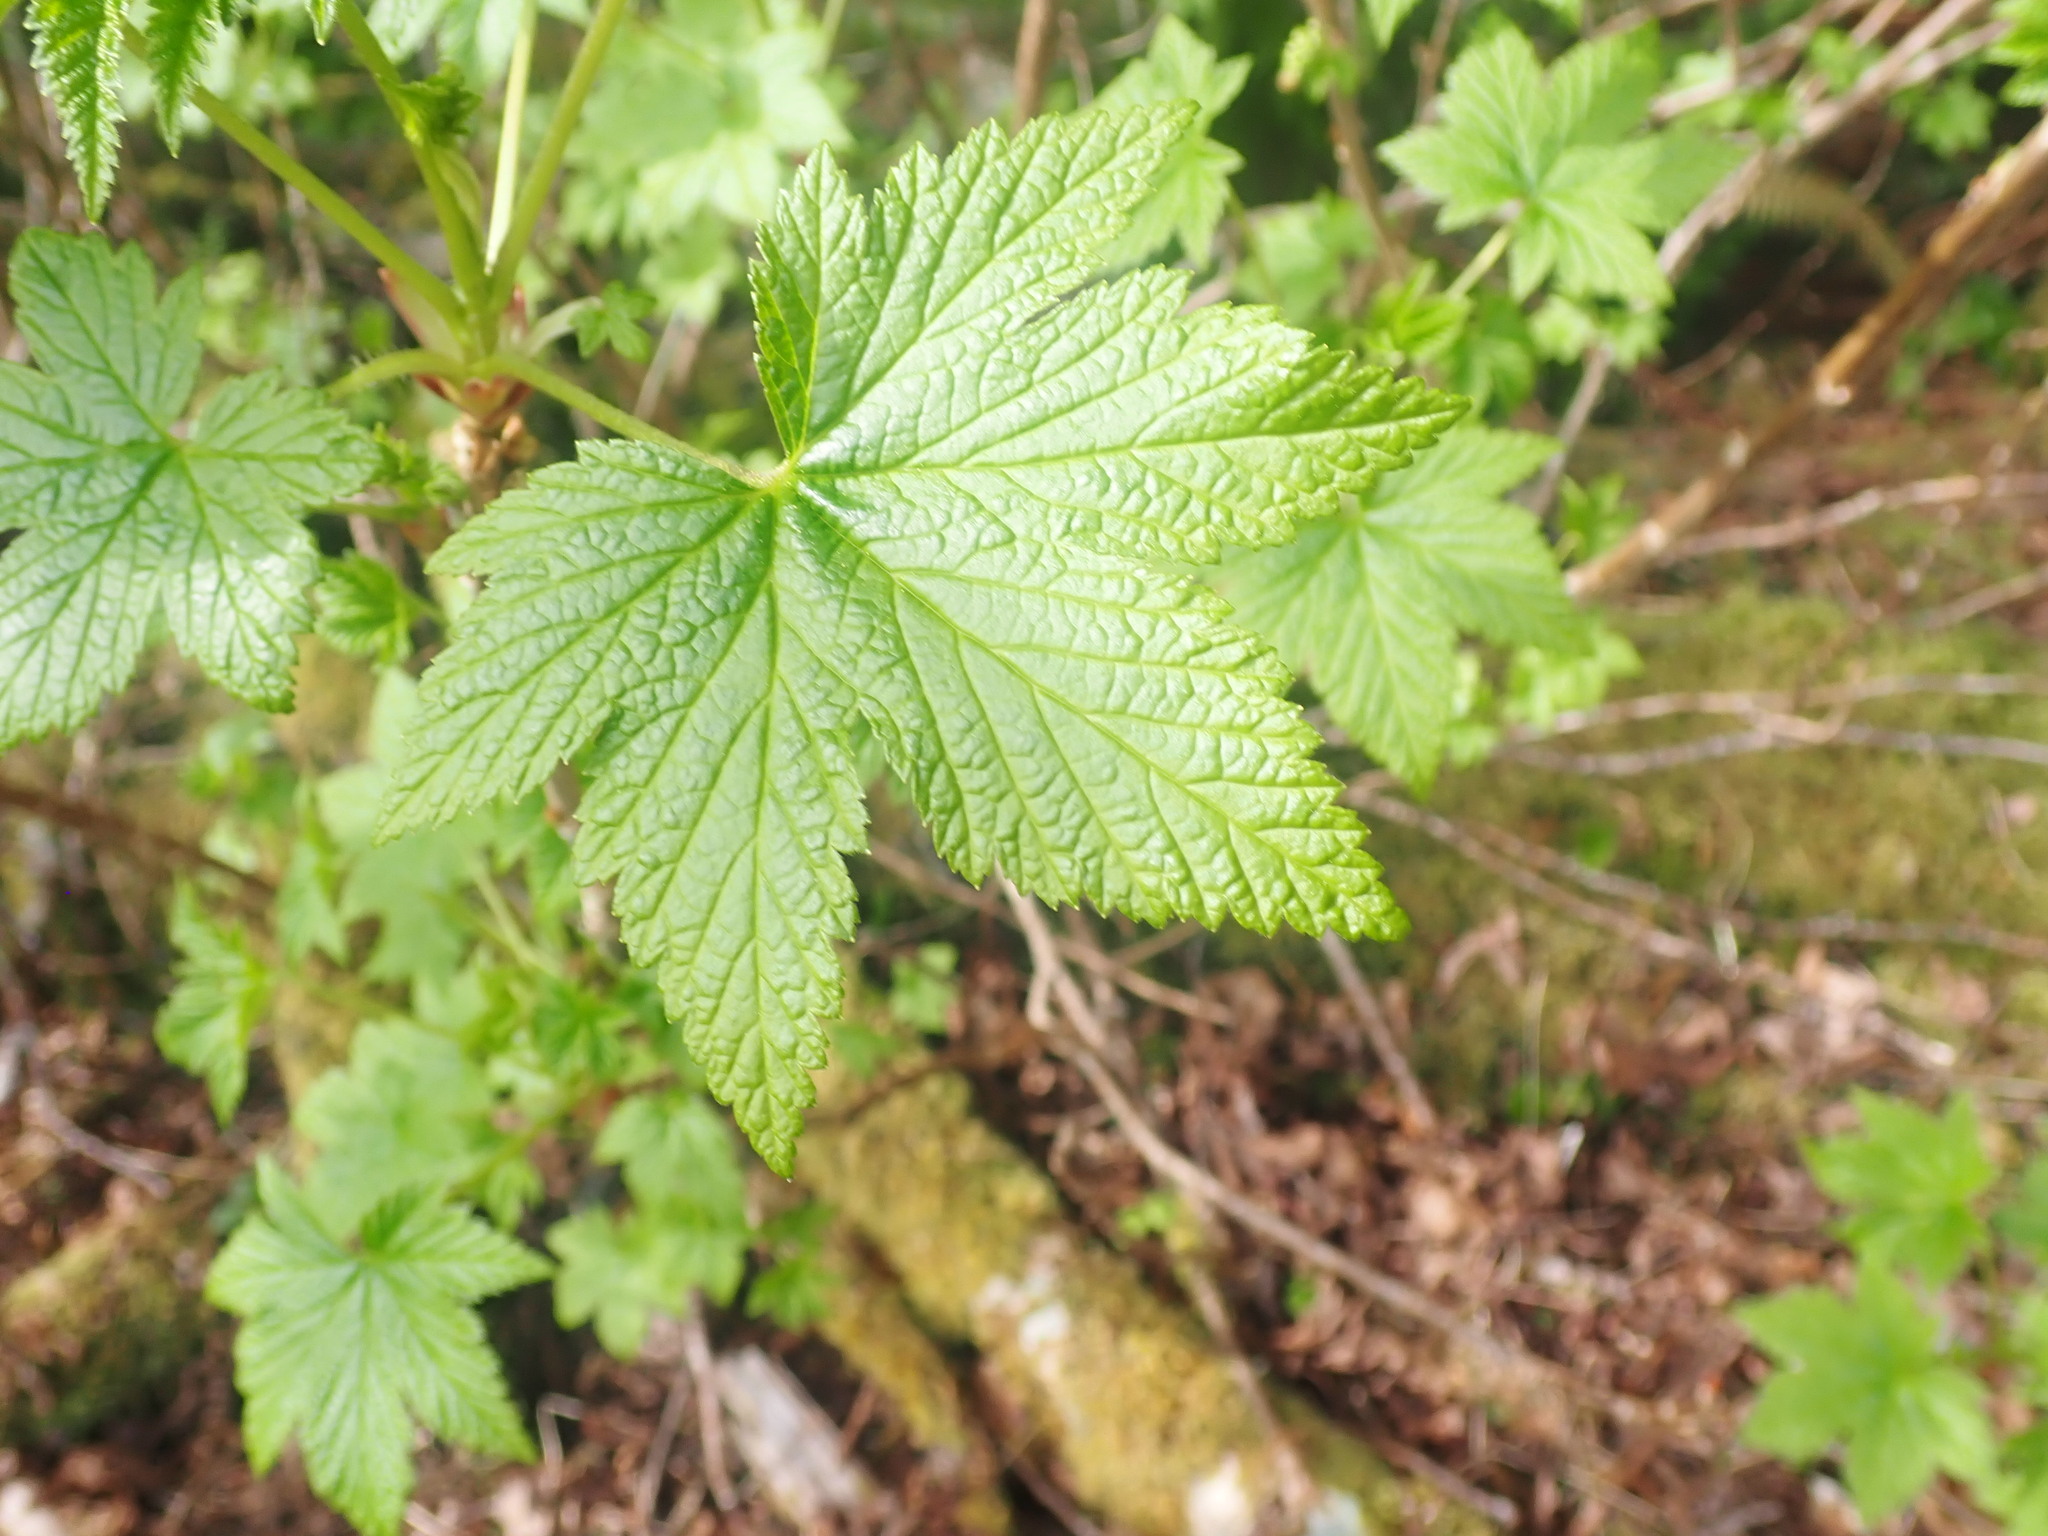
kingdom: Plantae
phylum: Tracheophyta
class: Magnoliopsida
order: Saxifragales
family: Grossulariaceae
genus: Ribes
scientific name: Ribes bracteosum
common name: California black currant
